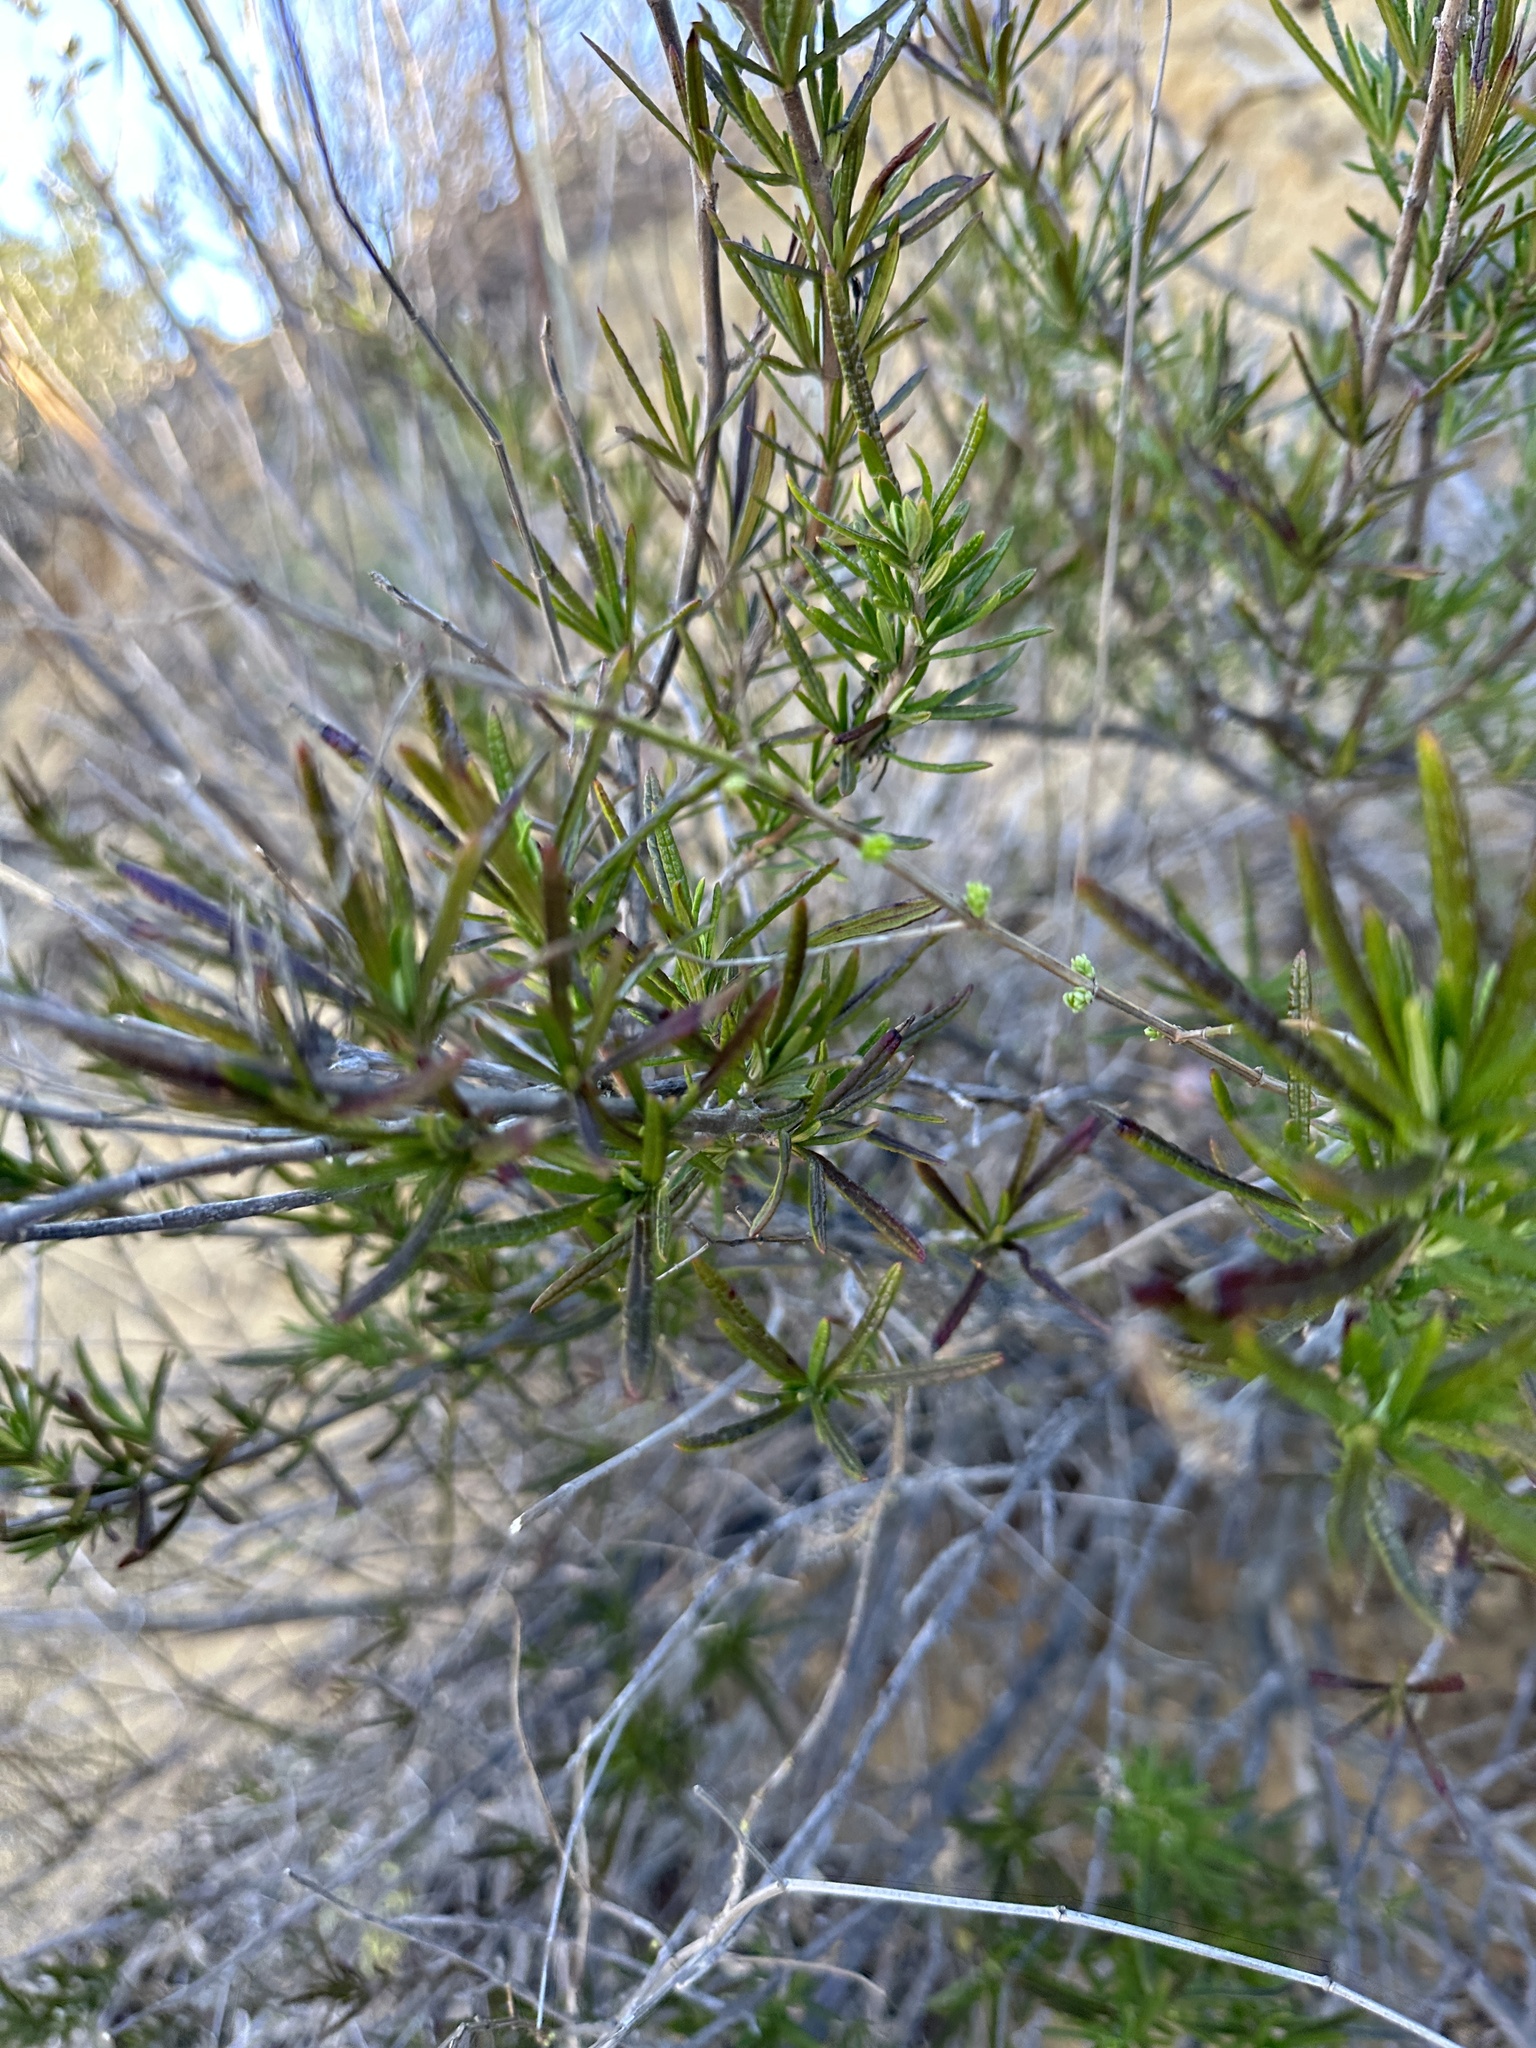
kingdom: Plantae
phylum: Tracheophyta
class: Magnoliopsida
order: Lamiales
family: Lamiaceae
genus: Trichostema
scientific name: Trichostema lanatum
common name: Woolly bluecurls
